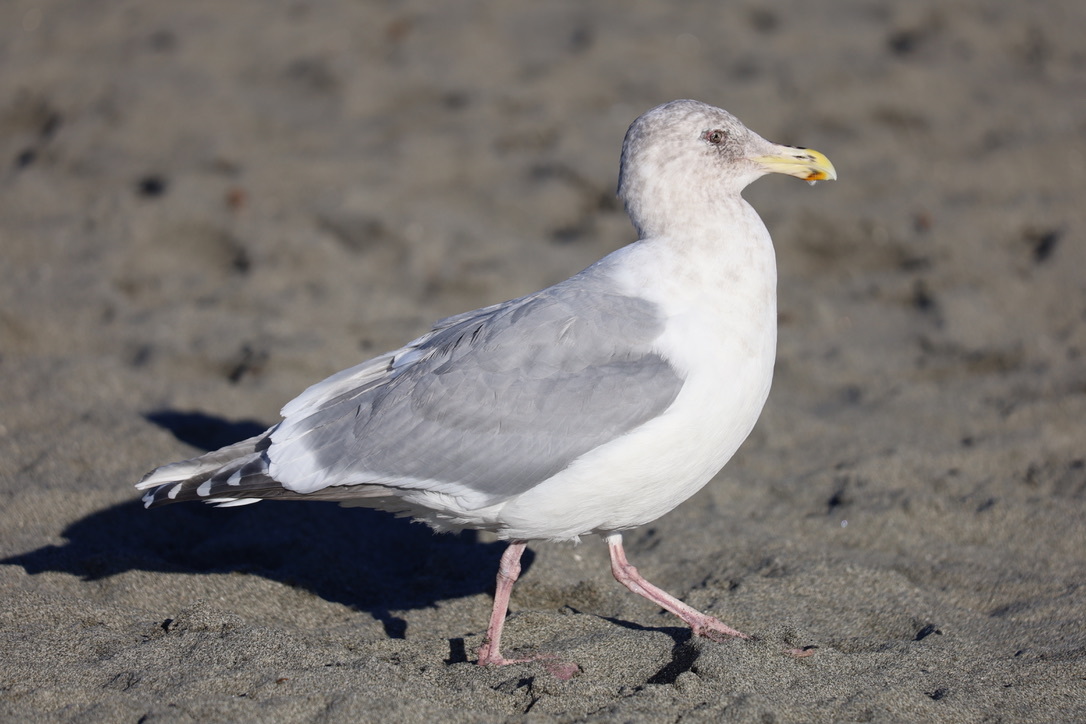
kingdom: Animalia
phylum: Chordata
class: Aves
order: Charadriiformes
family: Laridae
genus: Larus
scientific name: Larus
